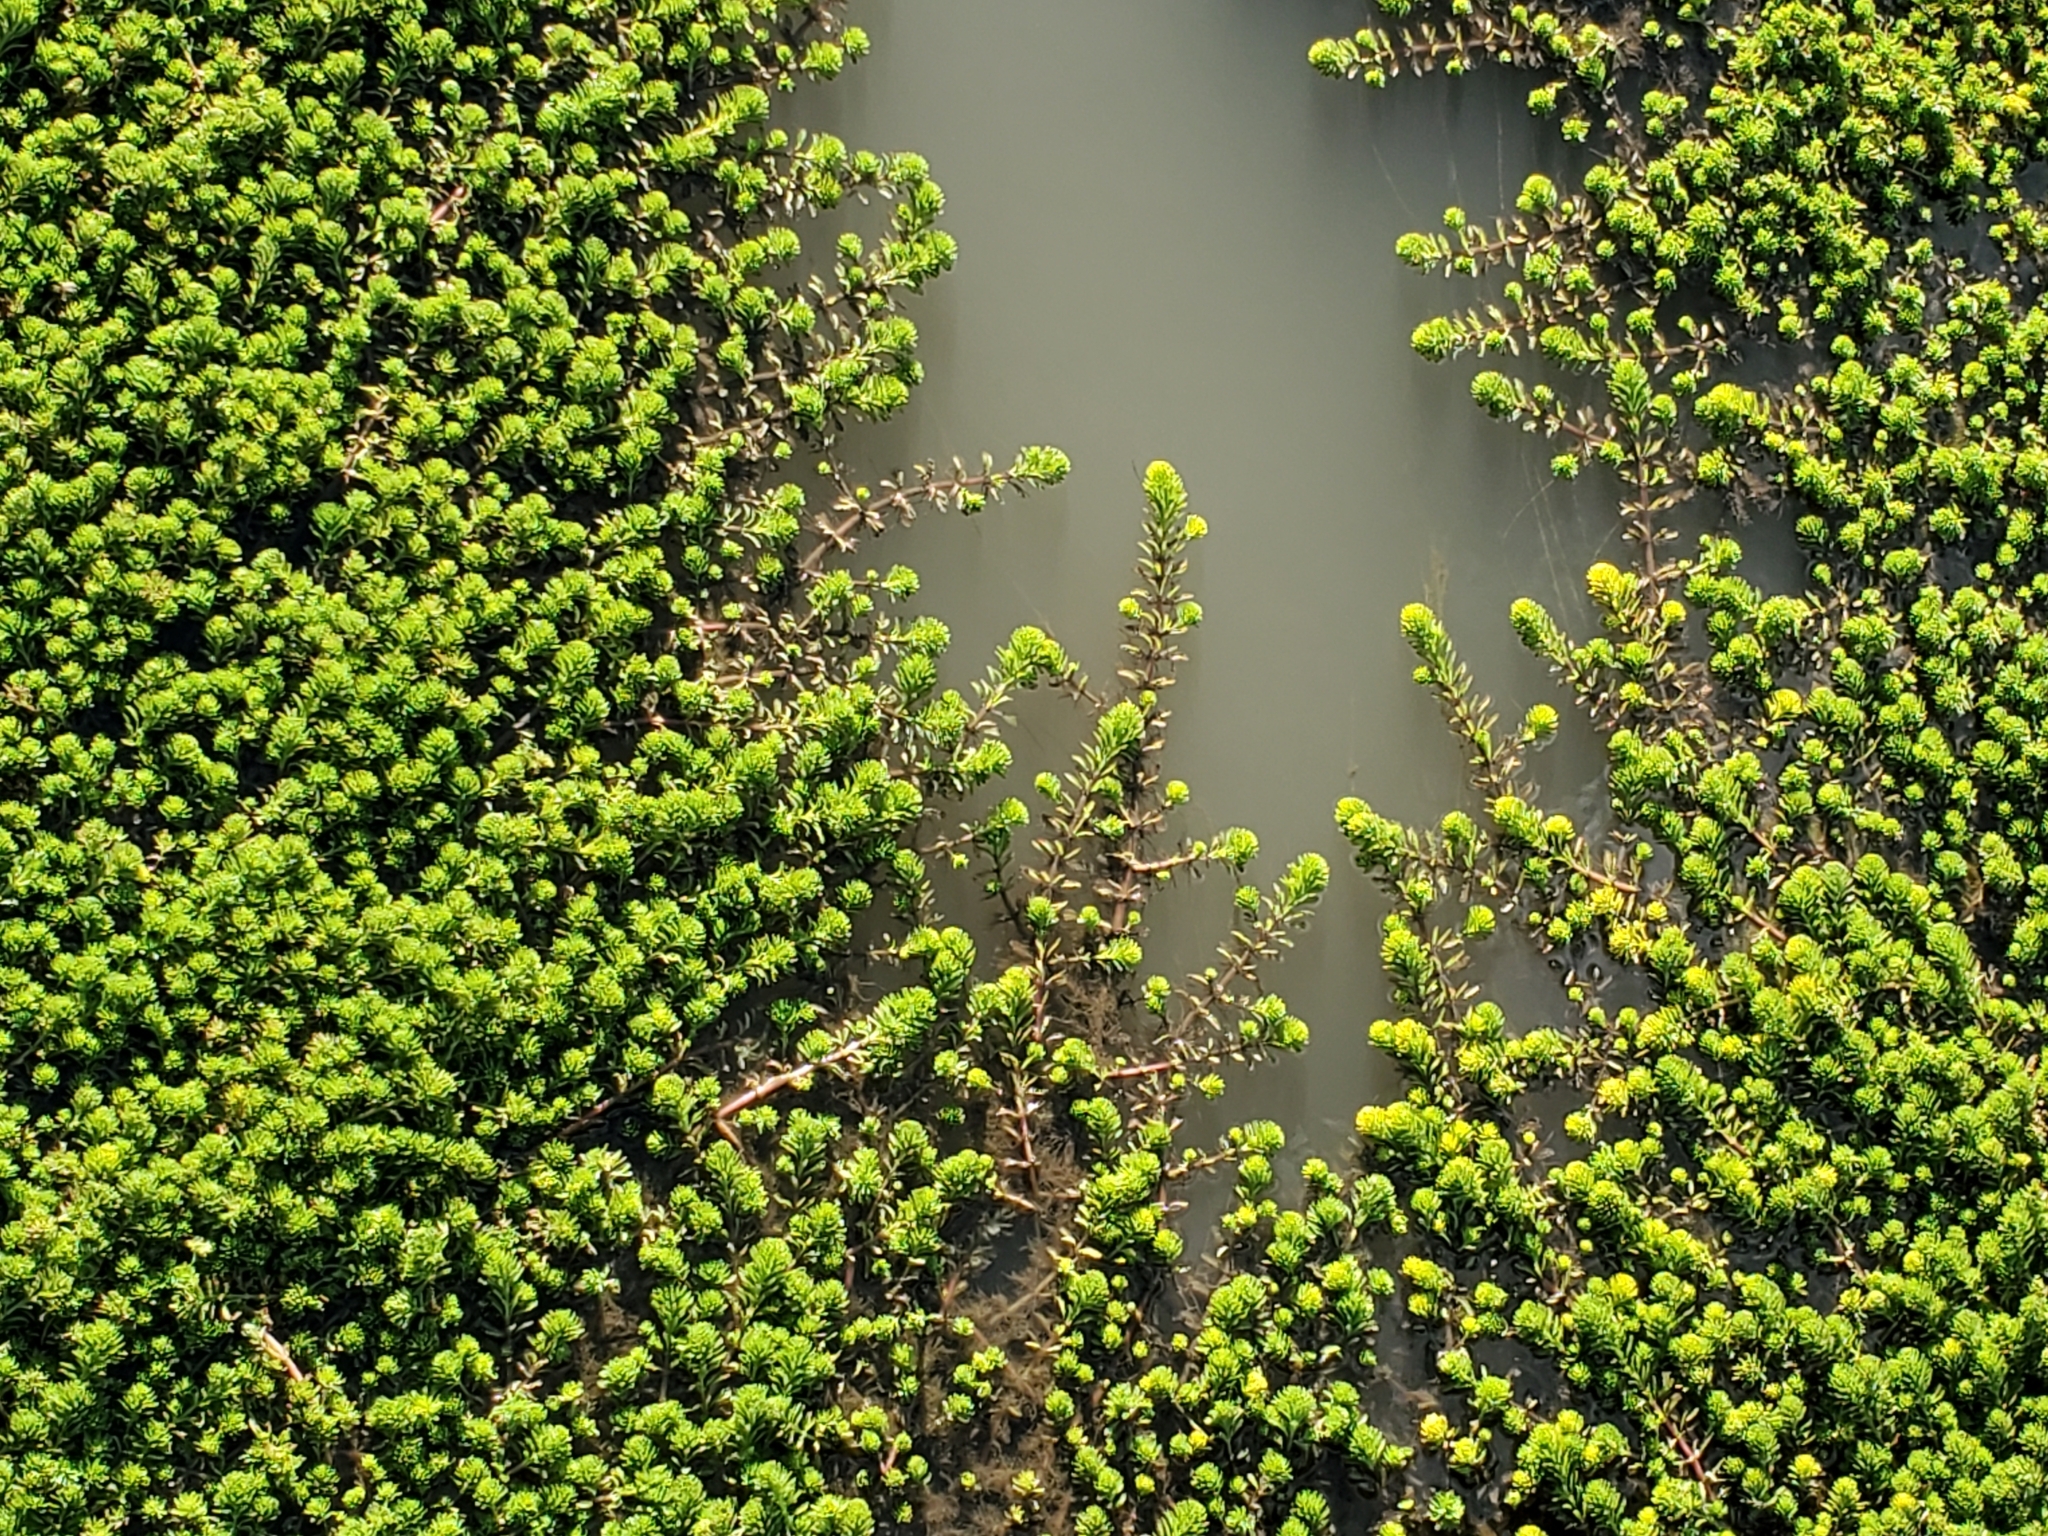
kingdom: Plantae
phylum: Tracheophyta
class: Magnoliopsida
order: Saxifragales
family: Haloragaceae
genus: Myriophyllum
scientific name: Myriophyllum aquaticum
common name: Parrot's feather
